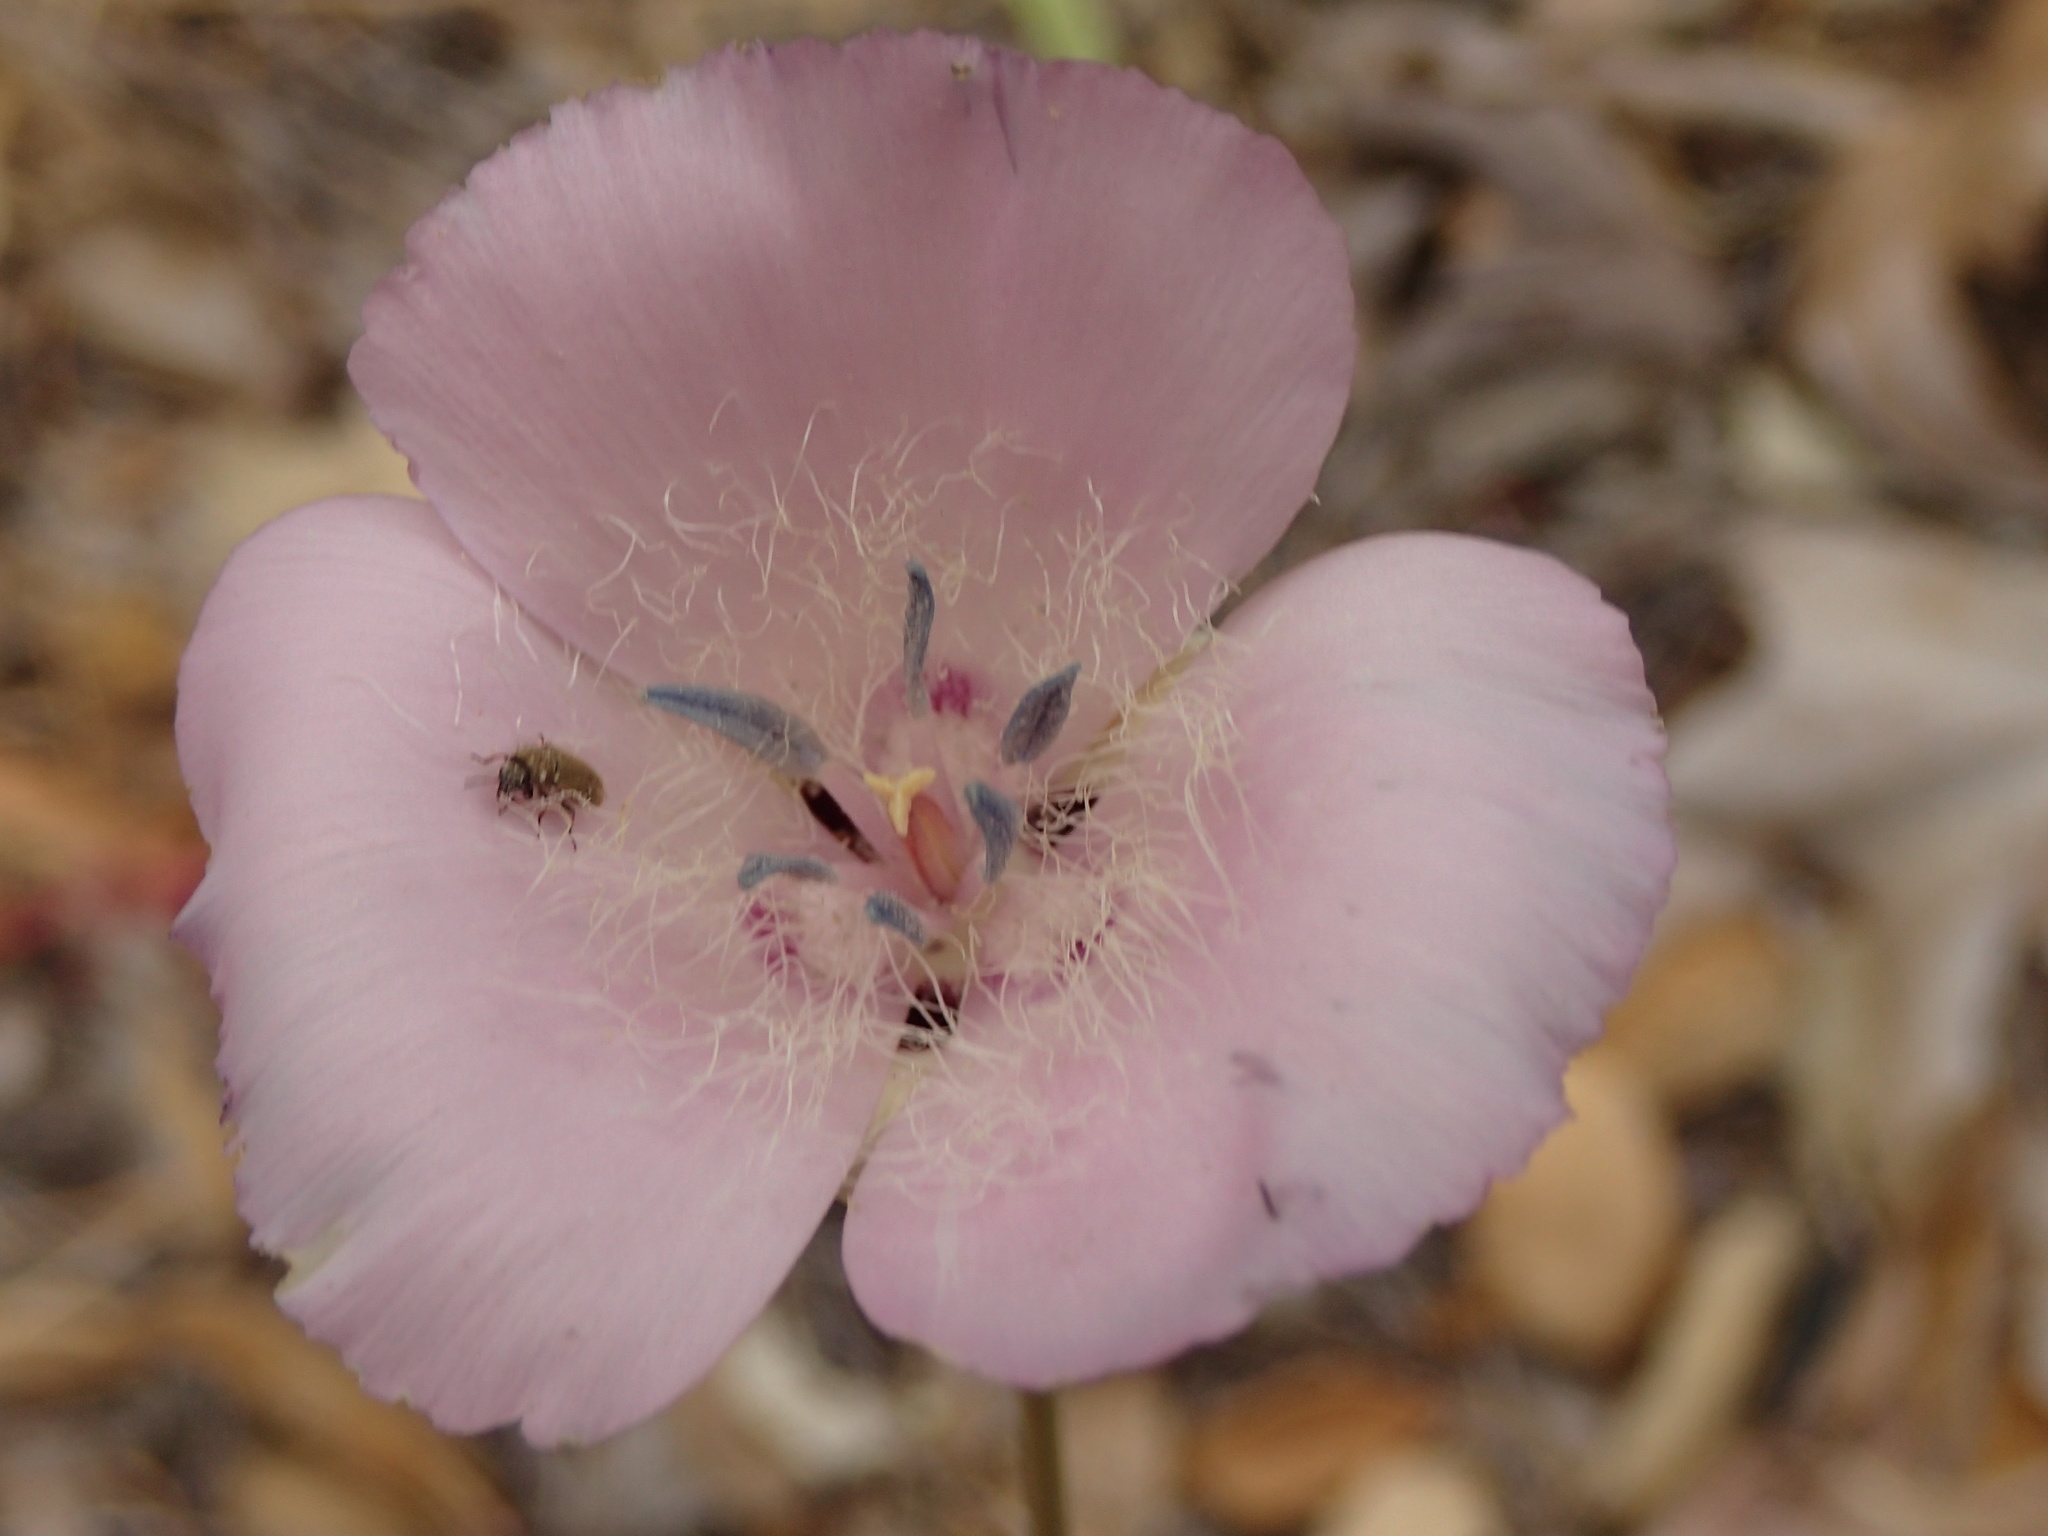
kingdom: Plantae
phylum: Tracheophyta
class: Liliopsida
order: Liliales
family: Liliaceae
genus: Calochortus
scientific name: Calochortus splendens
